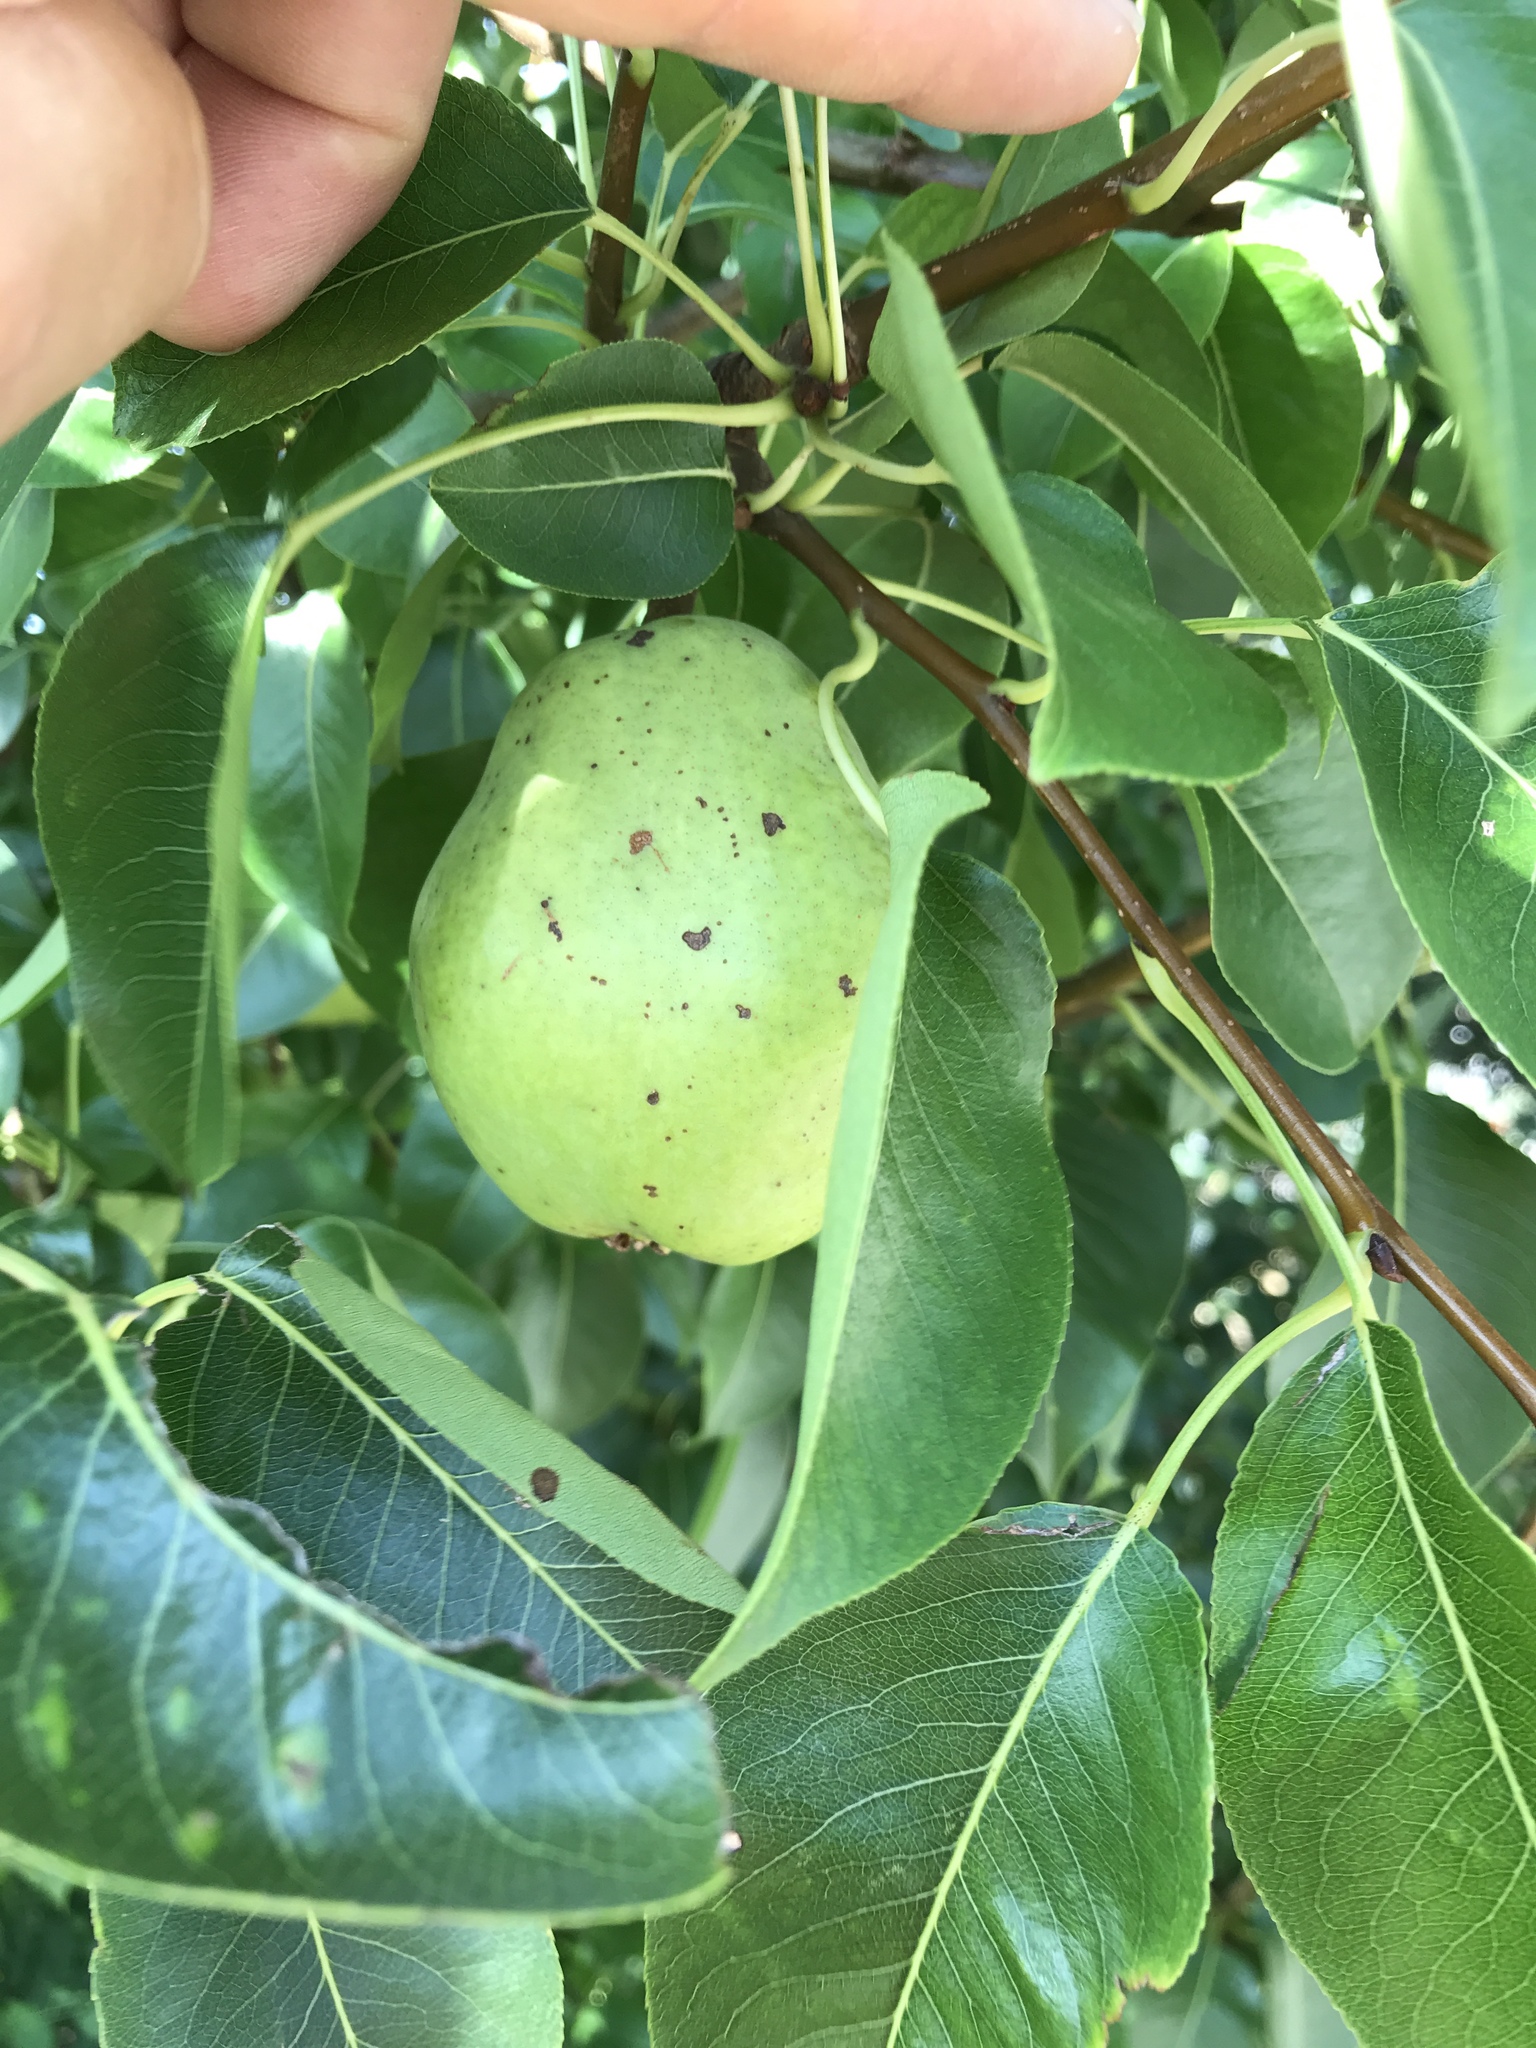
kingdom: Plantae
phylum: Tracheophyta
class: Magnoliopsida
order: Rosales
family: Rosaceae
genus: Pyrus
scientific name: Pyrus communis
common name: Pear
